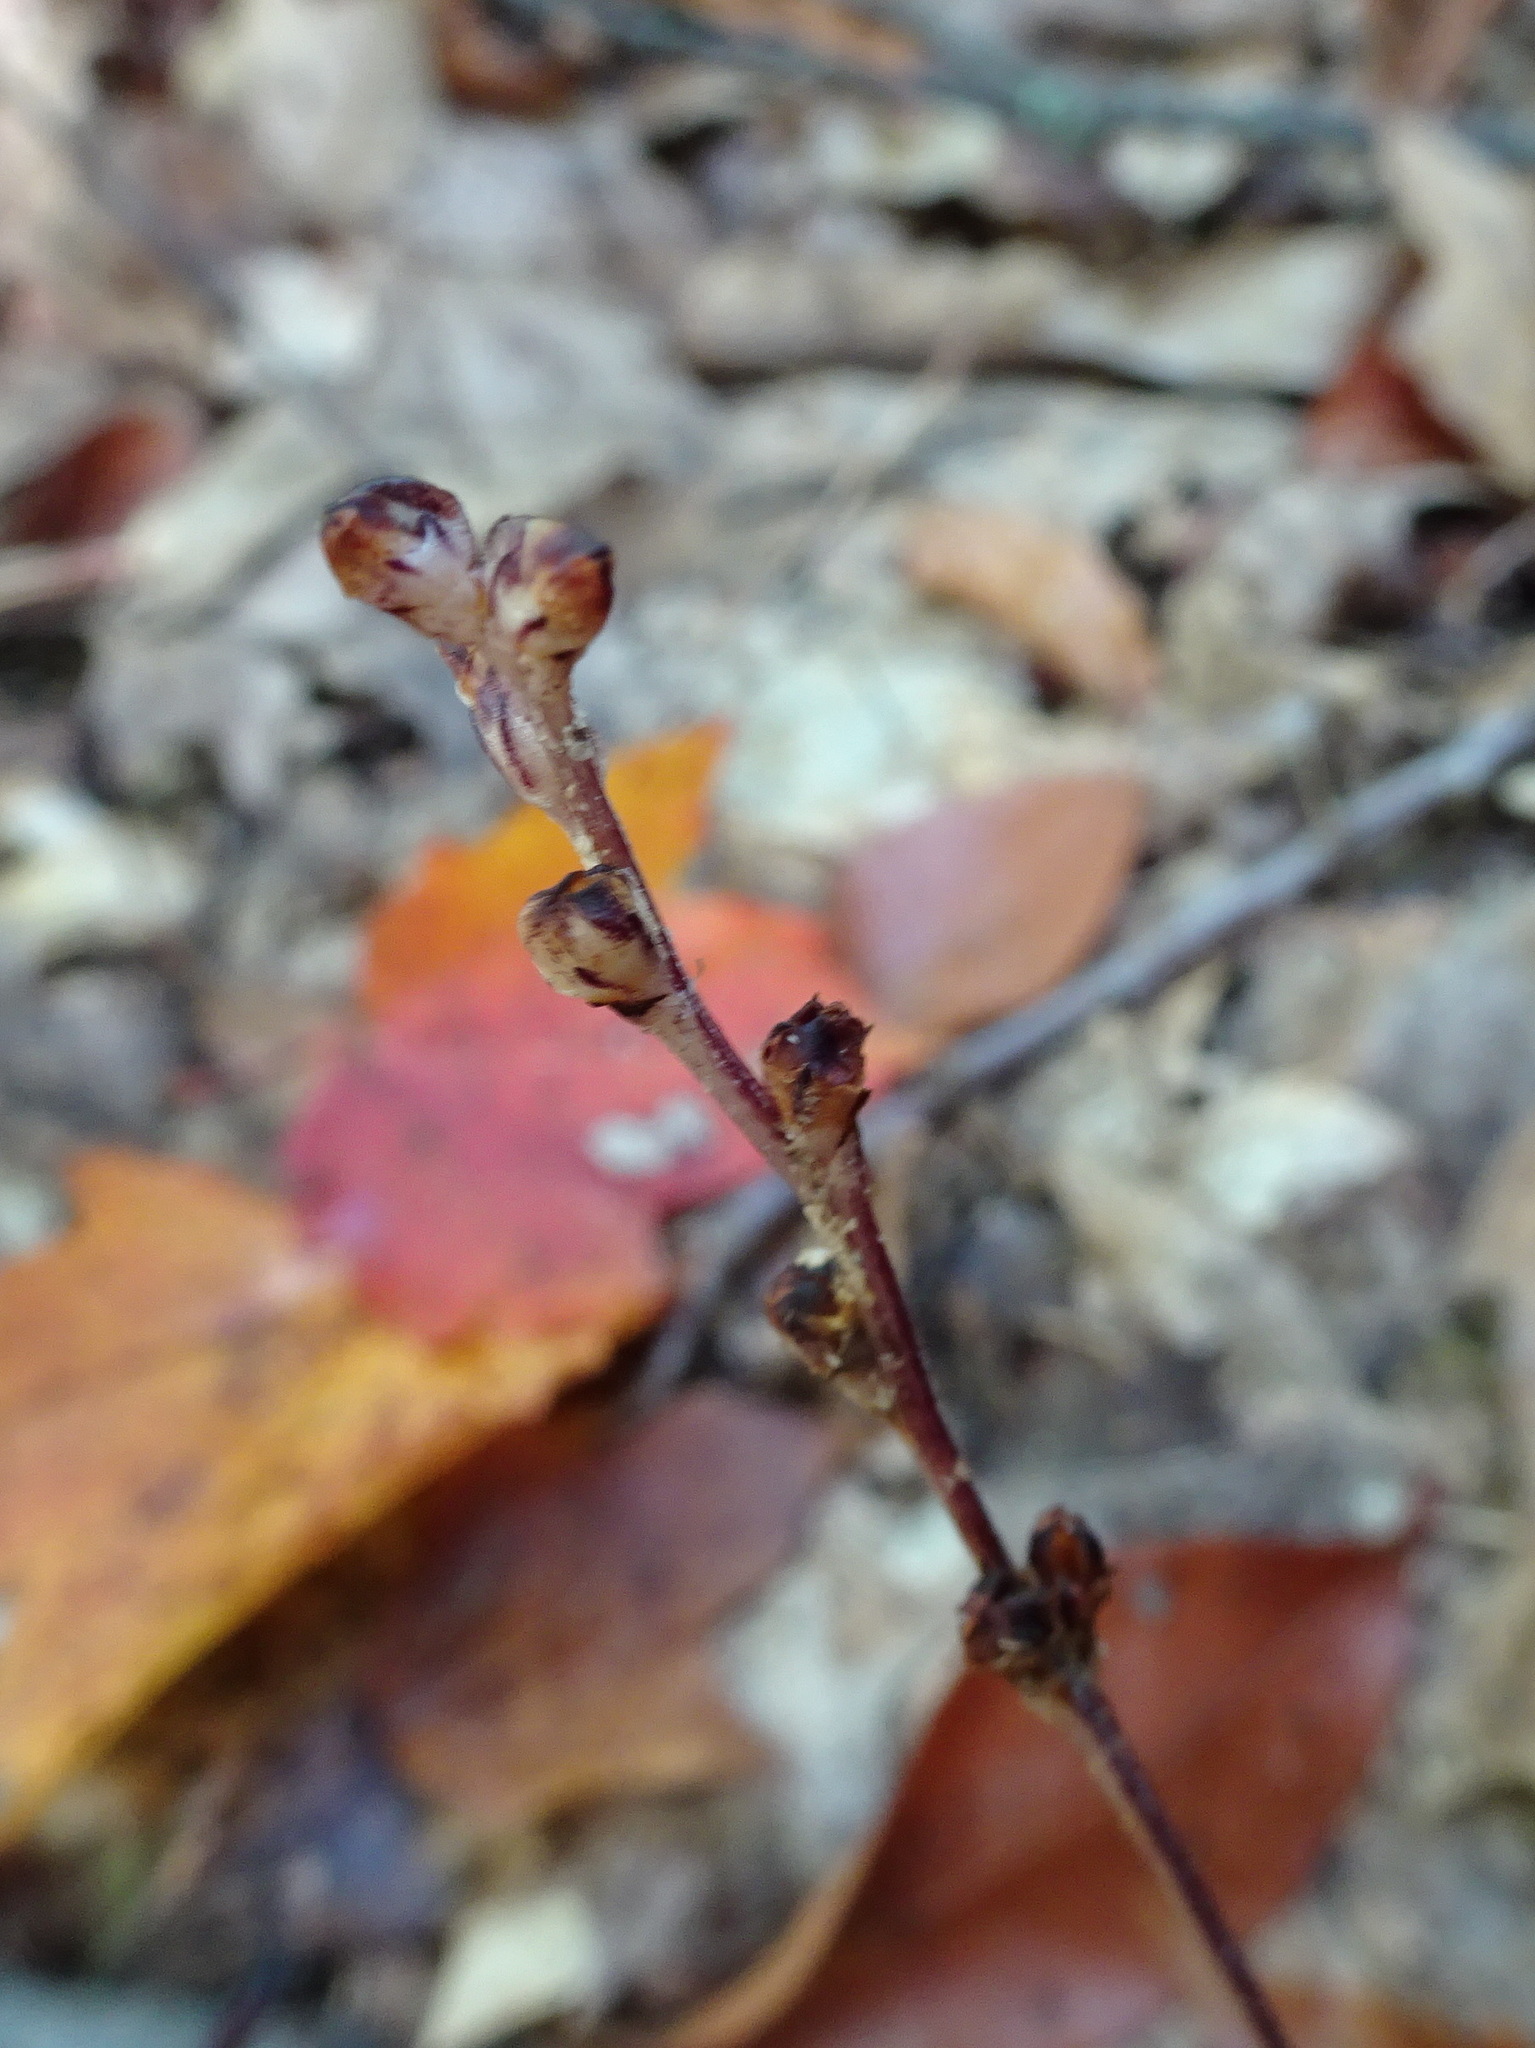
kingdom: Plantae
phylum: Tracheophyta
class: Magnoliopsida
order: Lamiales
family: Orobanchaceae
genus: Epifagus
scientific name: Epifagus virginiana
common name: Beechdrops
